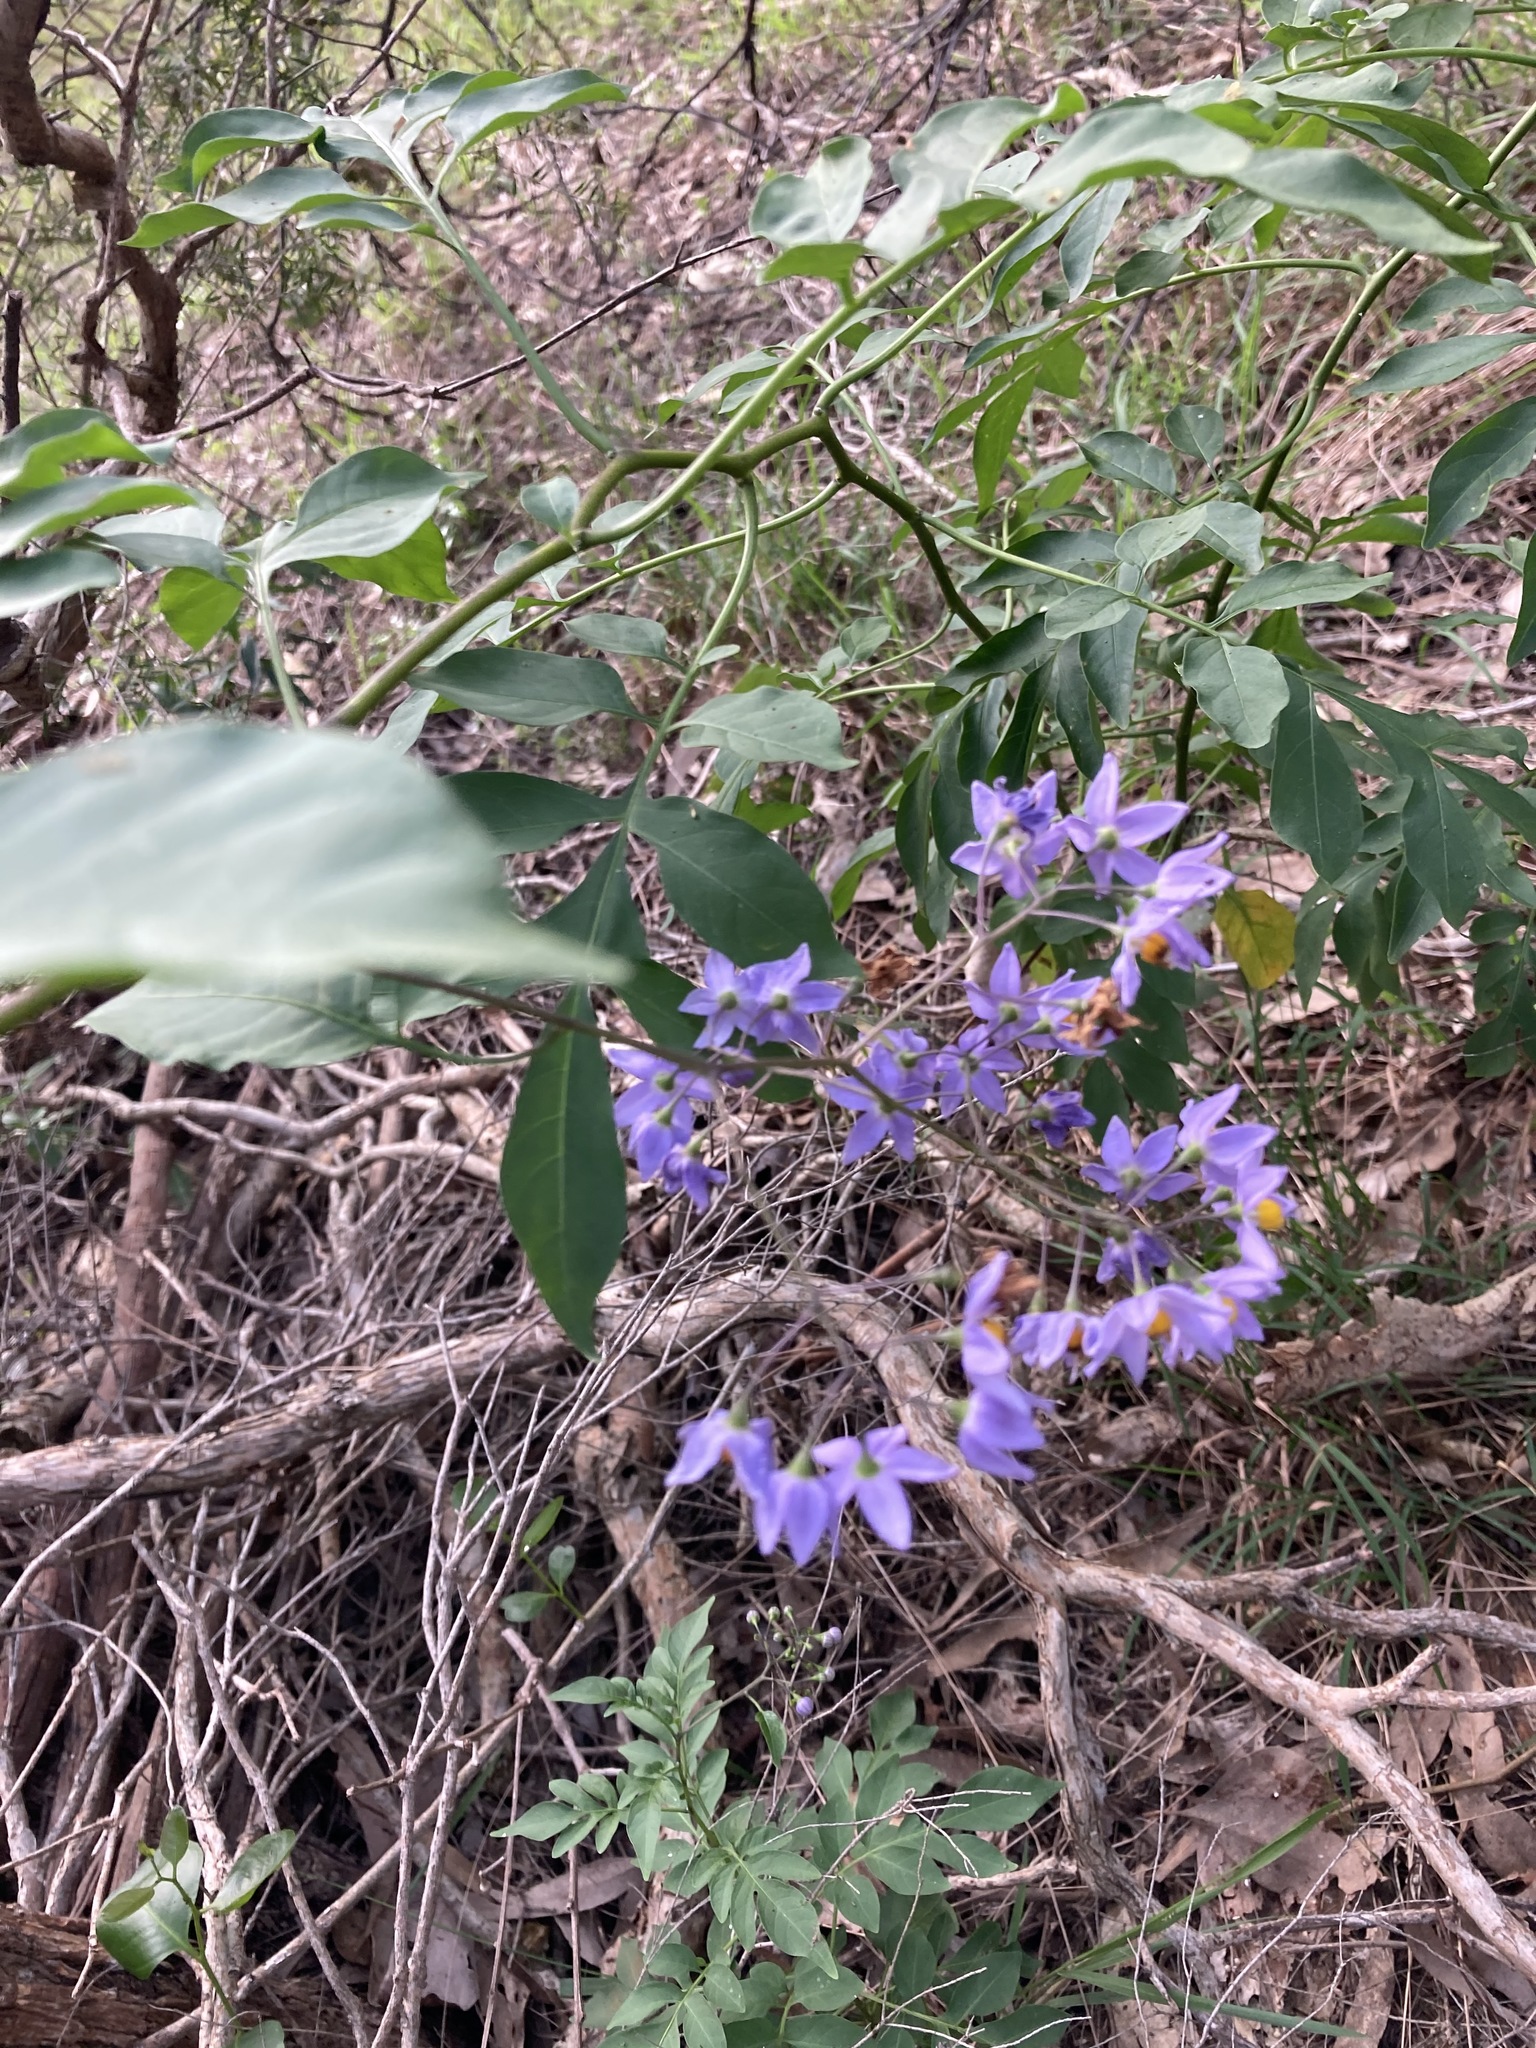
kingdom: Plantae
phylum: Tracheophyta
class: Magnoliopsida
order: Solanales
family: Solanaceae
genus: Solanum
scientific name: Solanum seaforthianum
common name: Brazilian nightshade
